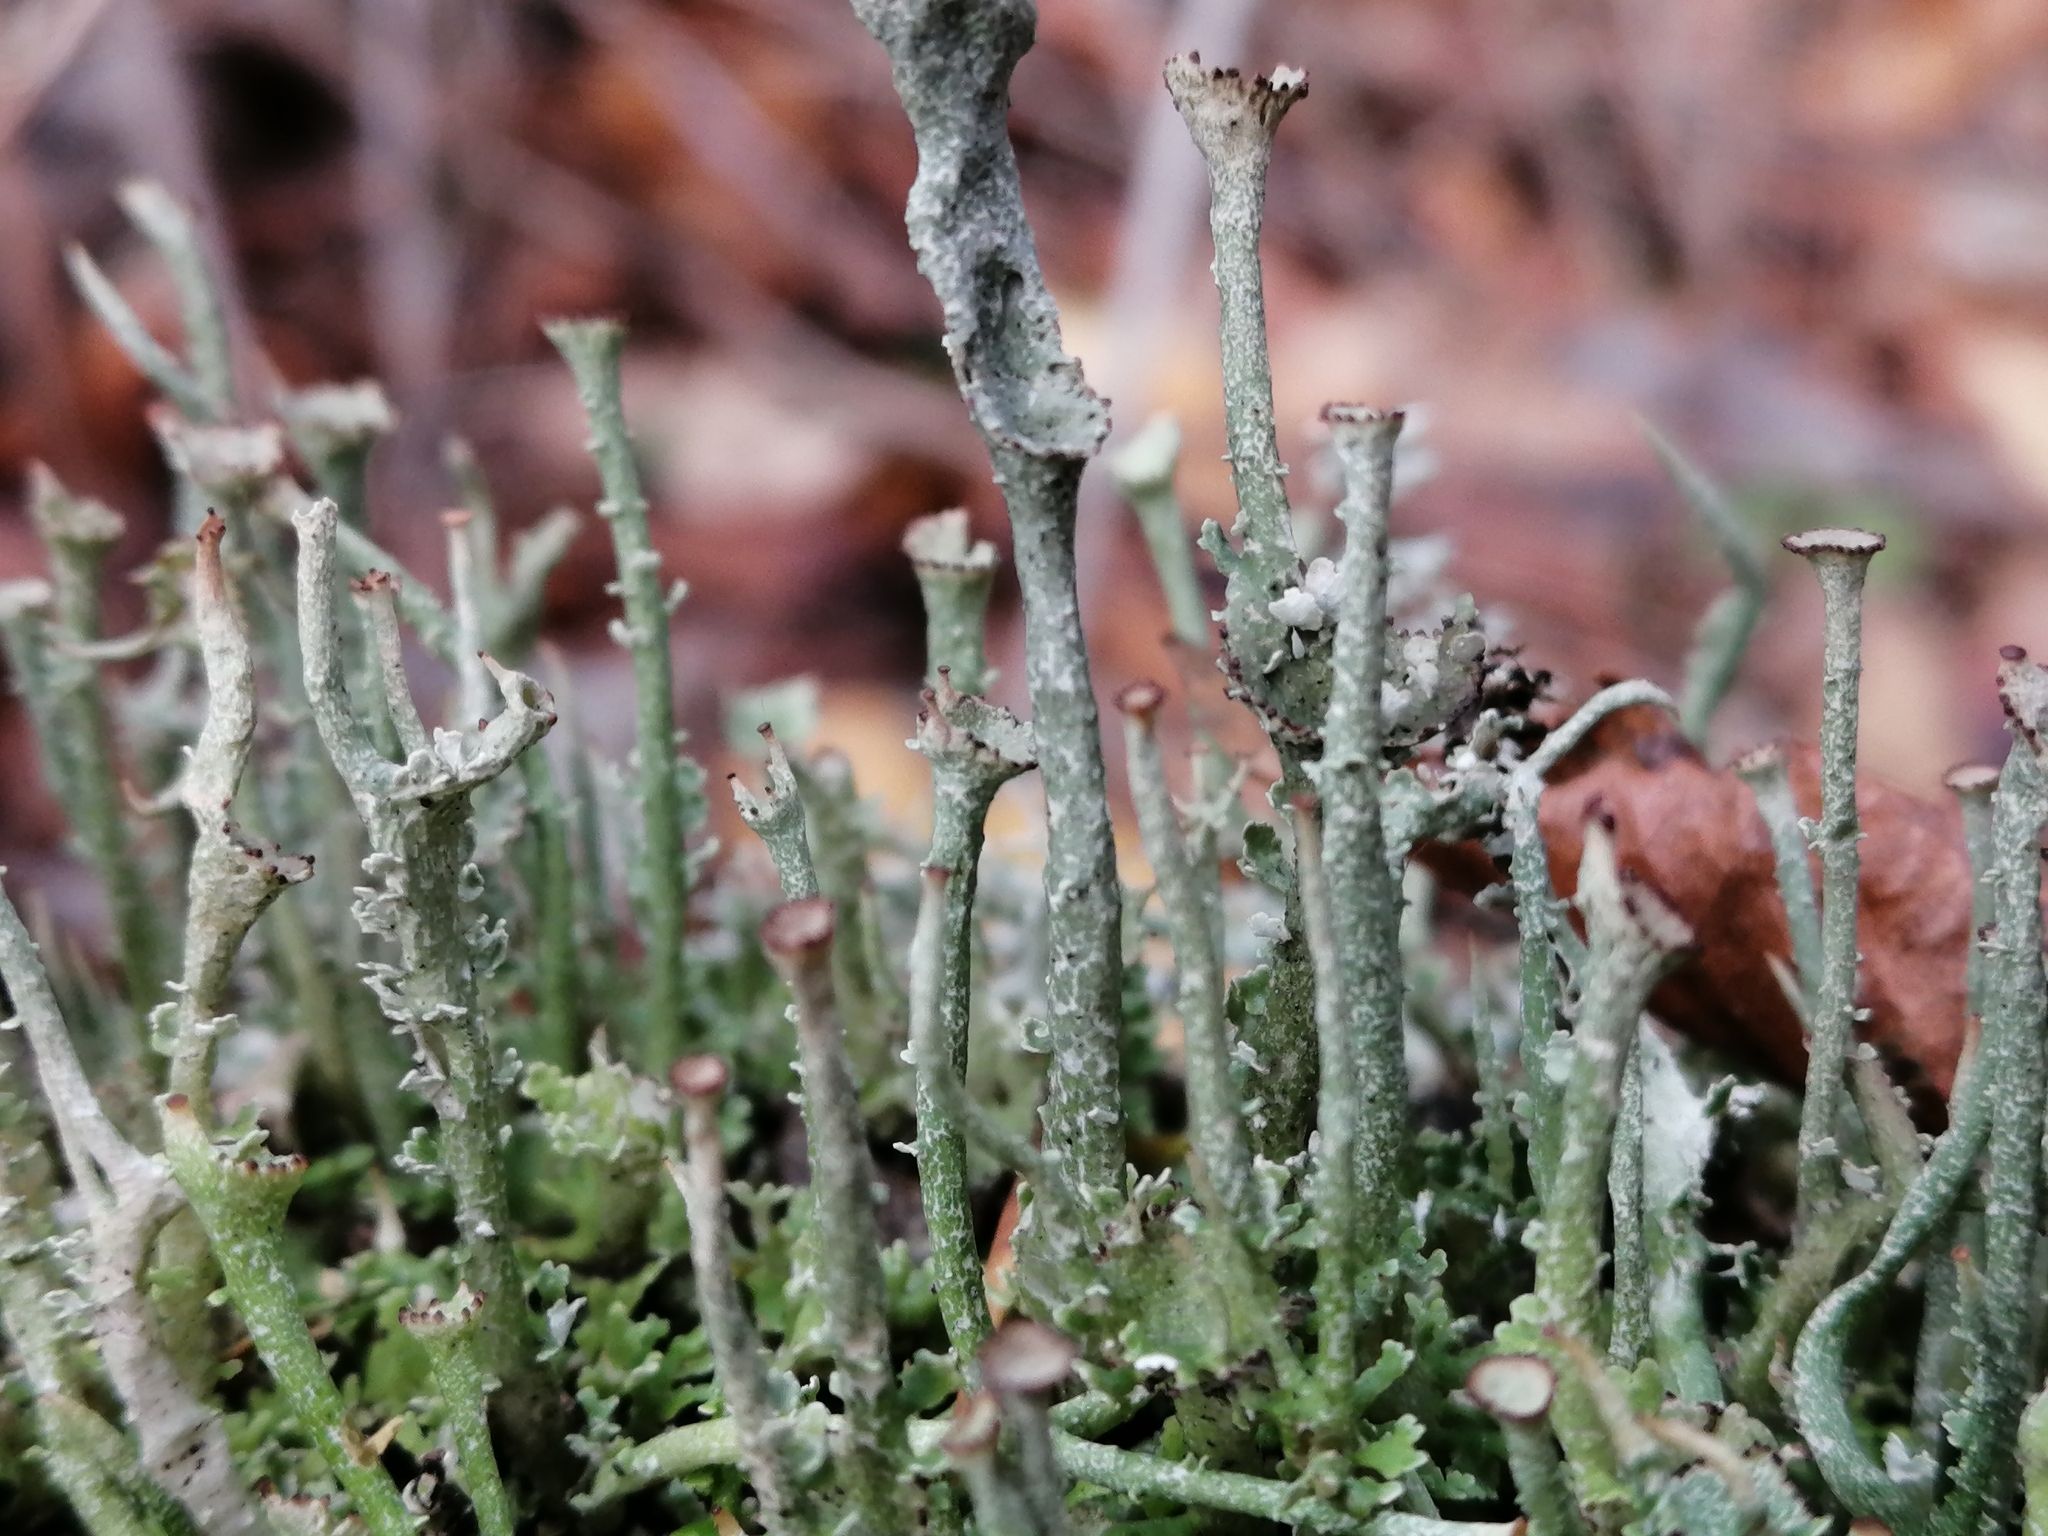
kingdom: Fungi
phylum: Ascomycota
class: Lecanoromycetes
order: Lecanorales
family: Cladoniaceae
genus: Cladonia
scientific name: Cladonia gracilis
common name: Smooth clad lichen
